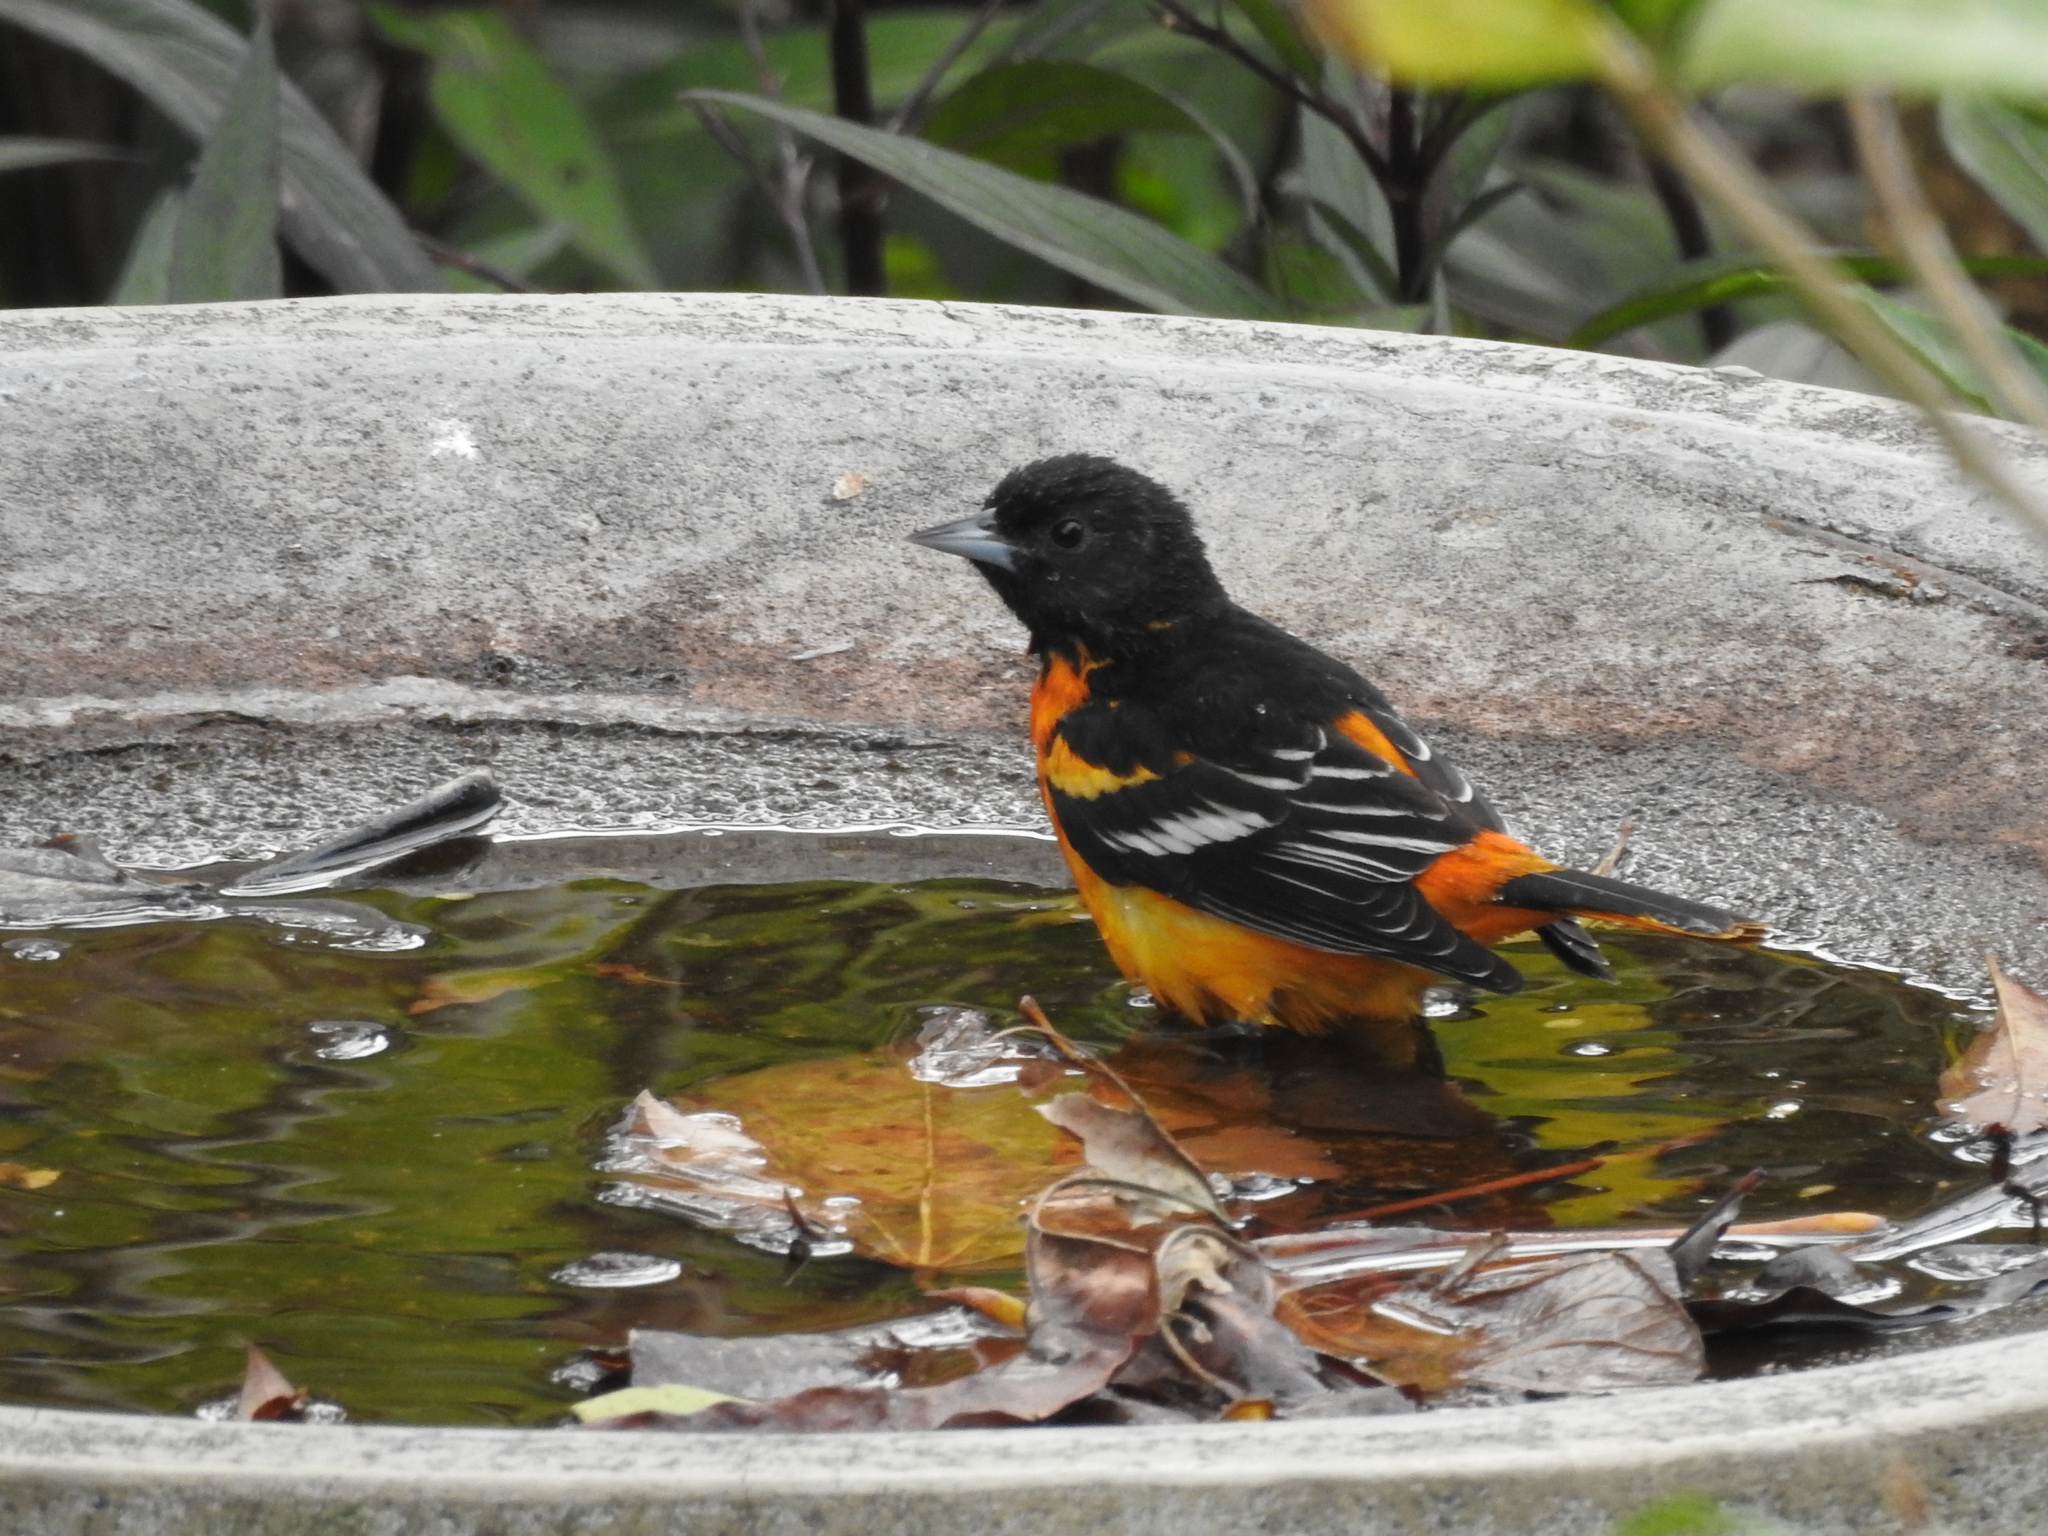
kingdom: Animalia
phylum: Chordata
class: Aves
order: Passeriformes
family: Icteridae
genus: Icterus
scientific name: Icterus galbula
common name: Baltimore oriole
